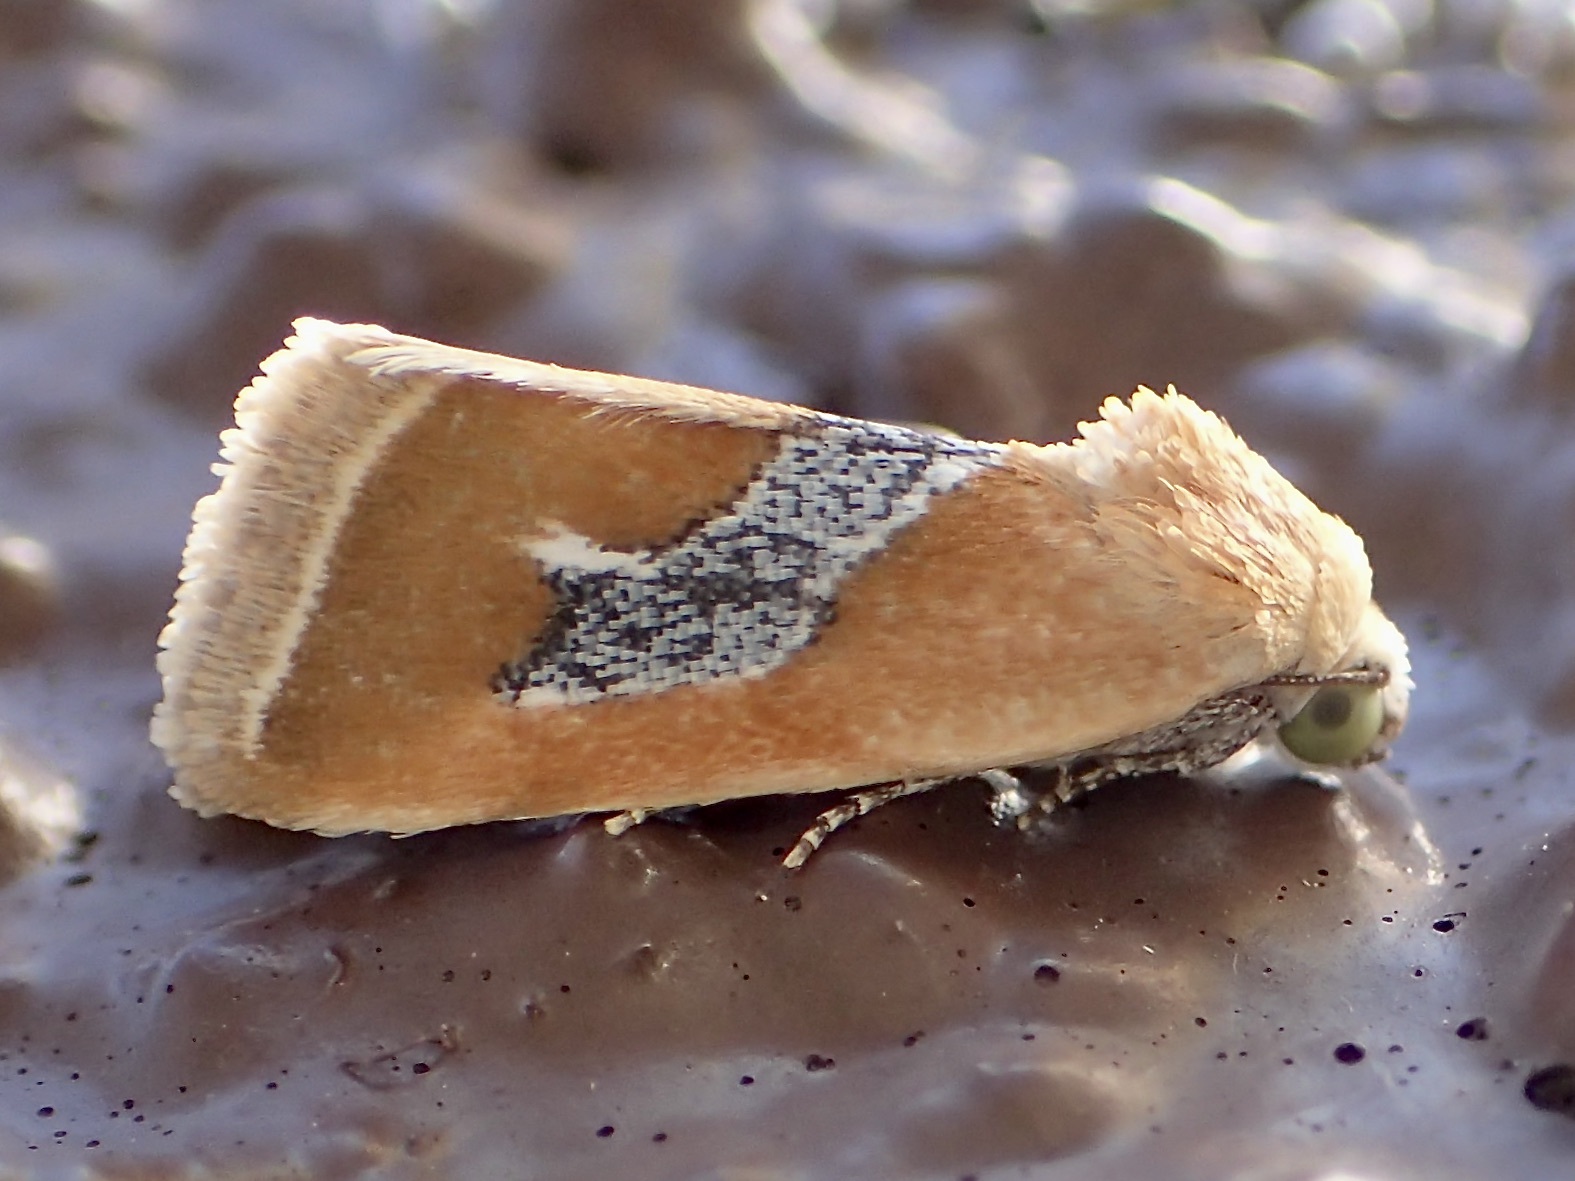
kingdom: Animalia
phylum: Arthropoda
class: Insecta
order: Lepidoptera
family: Noctuidae
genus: Ponometia
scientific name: Ponometia venustula
